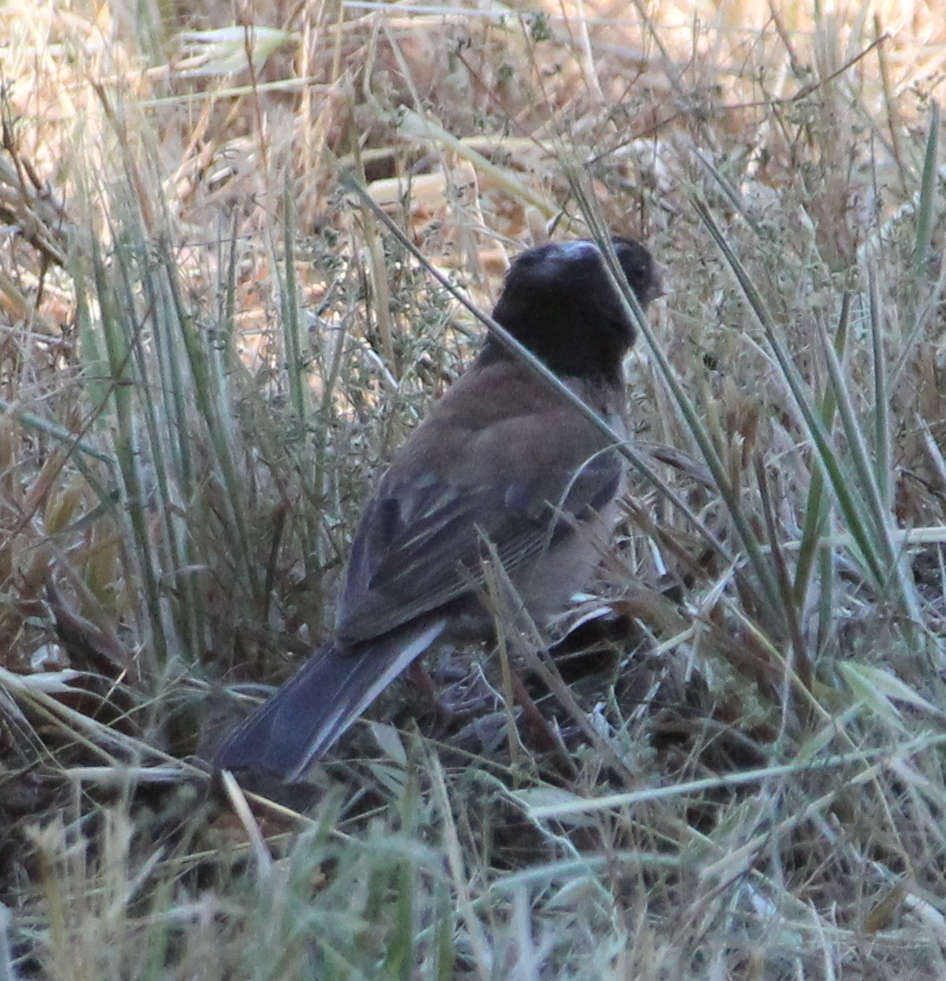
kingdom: Animalia
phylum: Chordata
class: Aves
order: Passeriformes
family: Passerellidae
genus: Junco
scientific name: Junco hyemalis
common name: Dark-eyed junco
